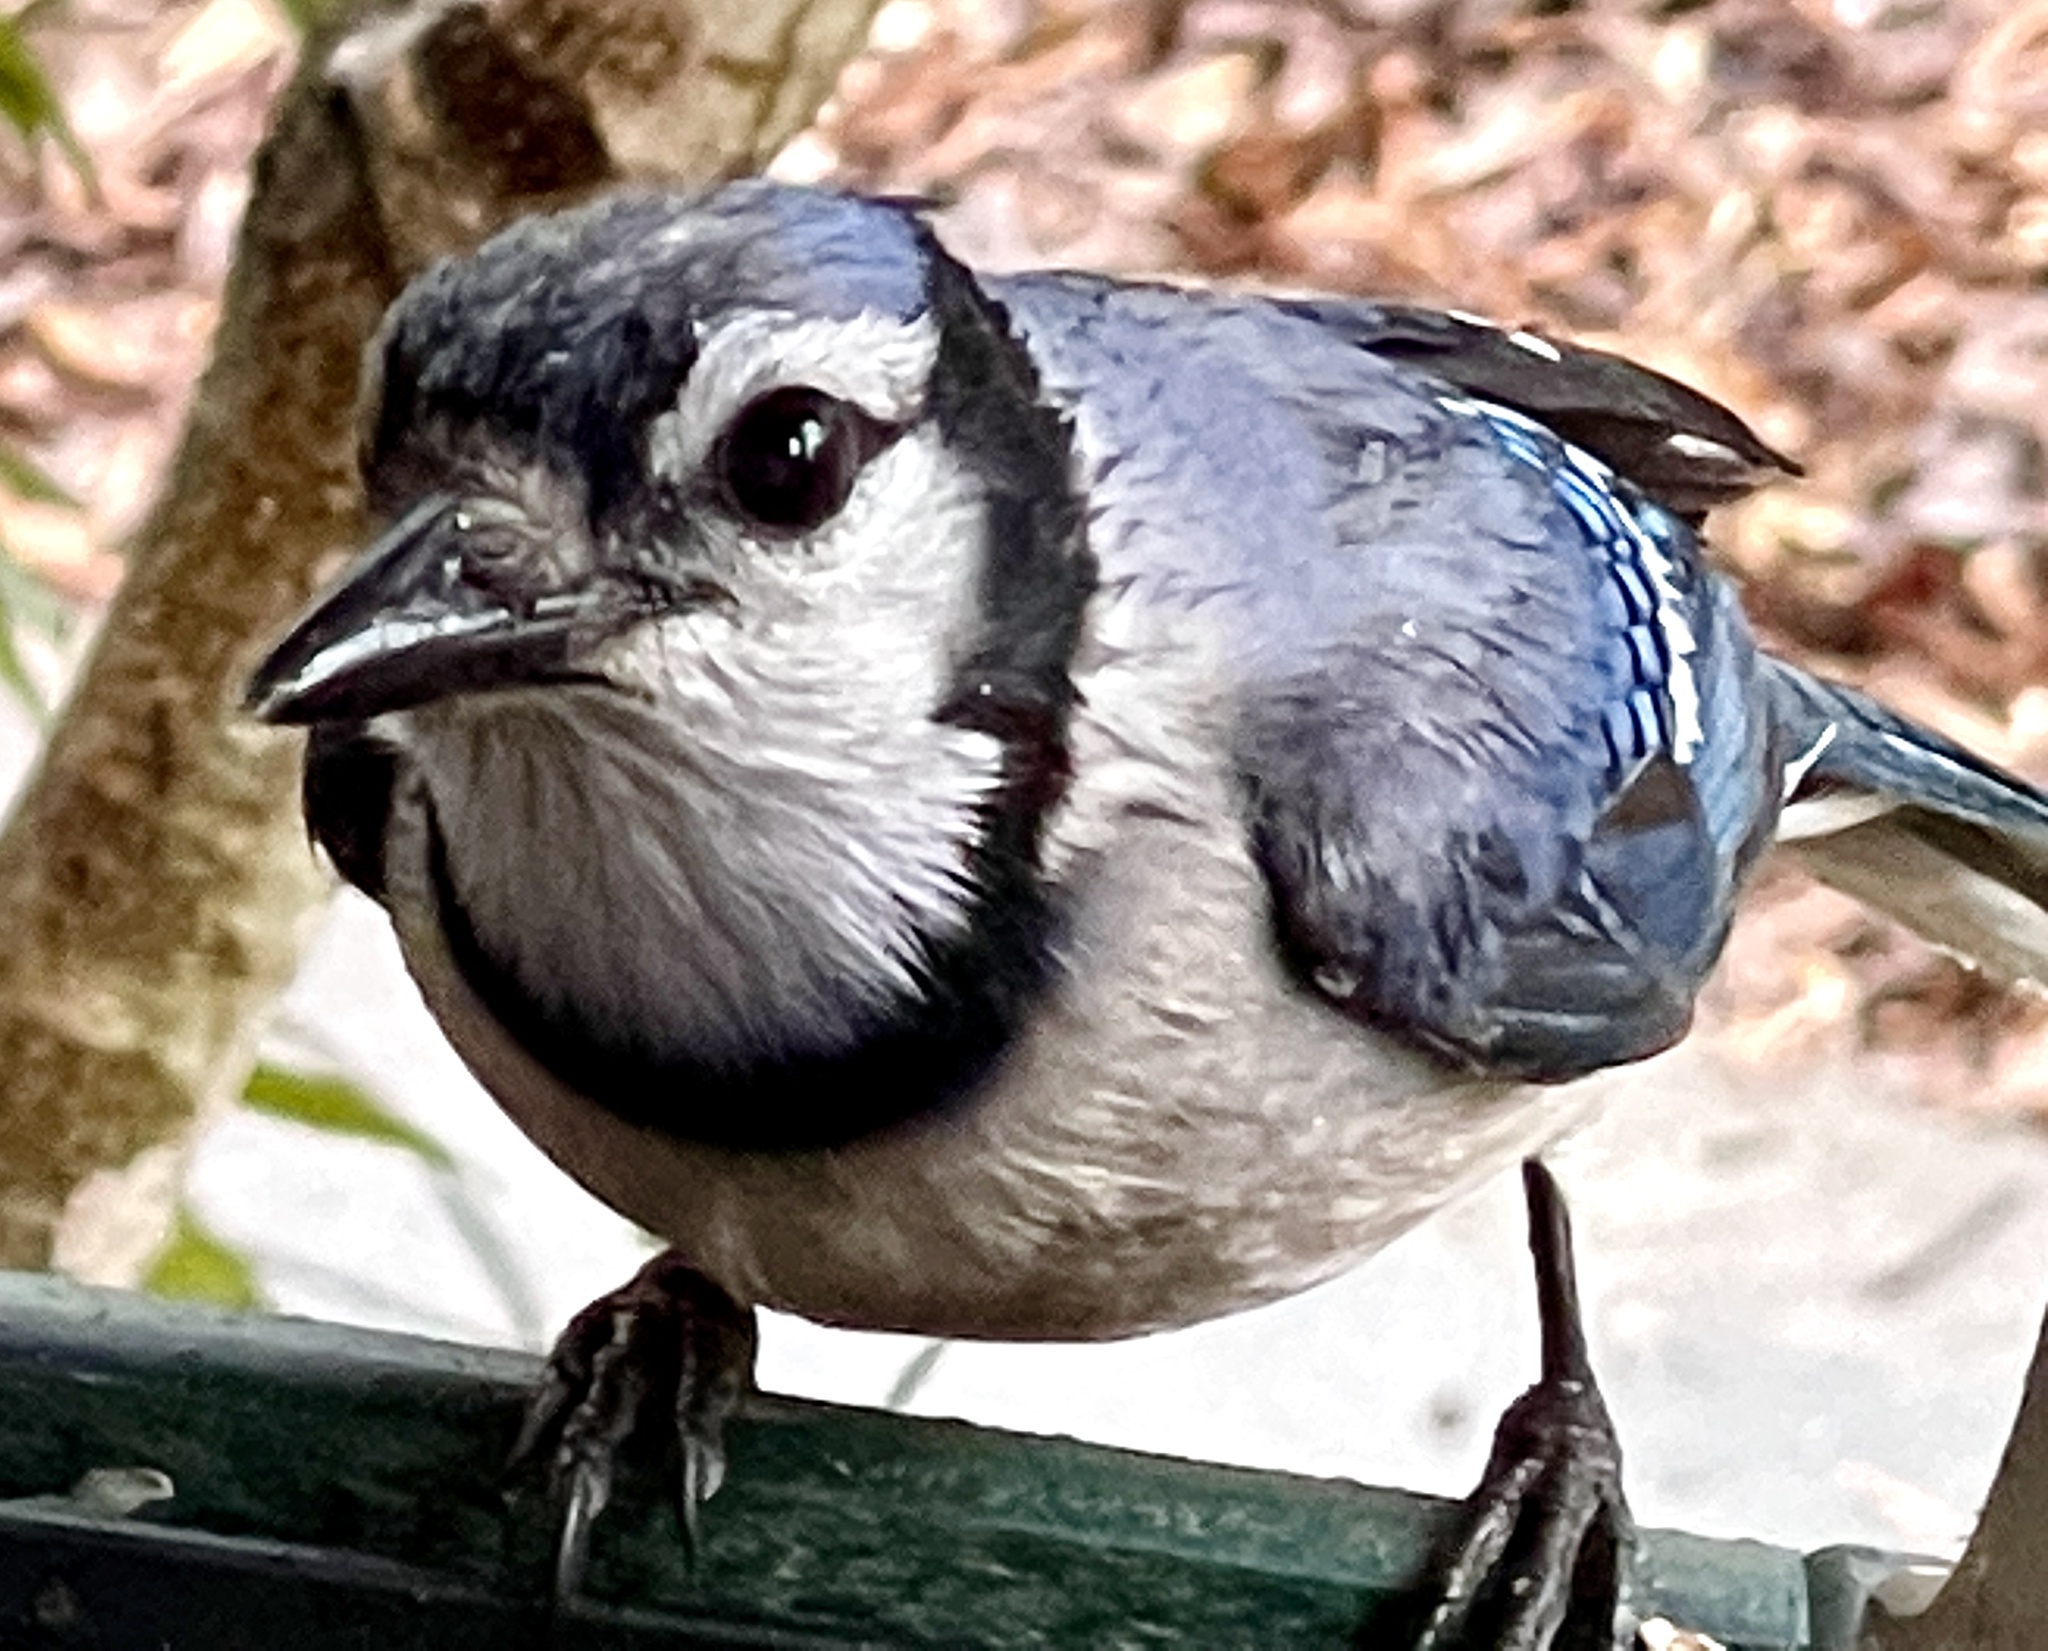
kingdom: Animalia
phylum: Chordata
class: Aves
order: Passeriformes
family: Corvidae
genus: Cyanocitta
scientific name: Cyanocitta cristata
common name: Blue jay
